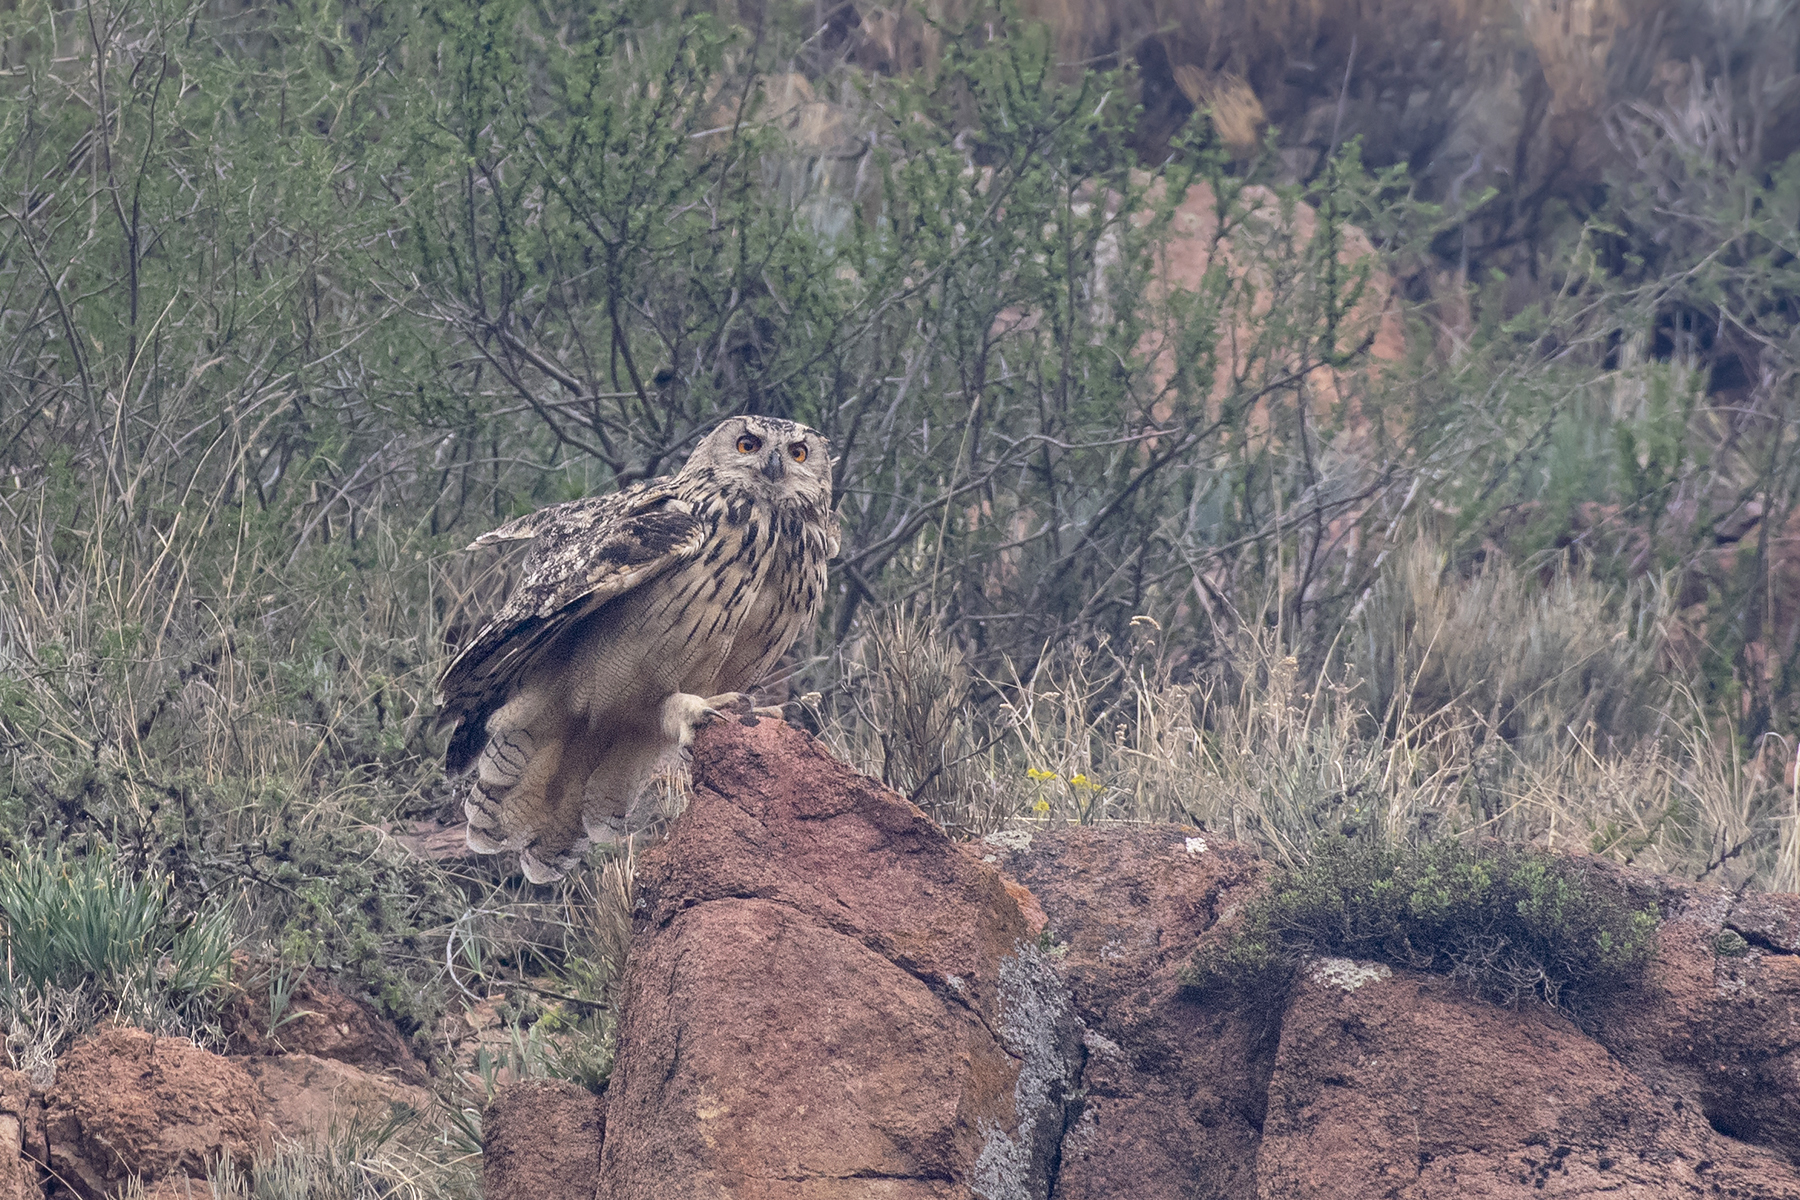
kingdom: Animalia
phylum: Chordata
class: Aves
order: Strigiformes
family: Strigidae
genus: Bubo
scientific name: Bubo bubo
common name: Eurasian eagle-owl
